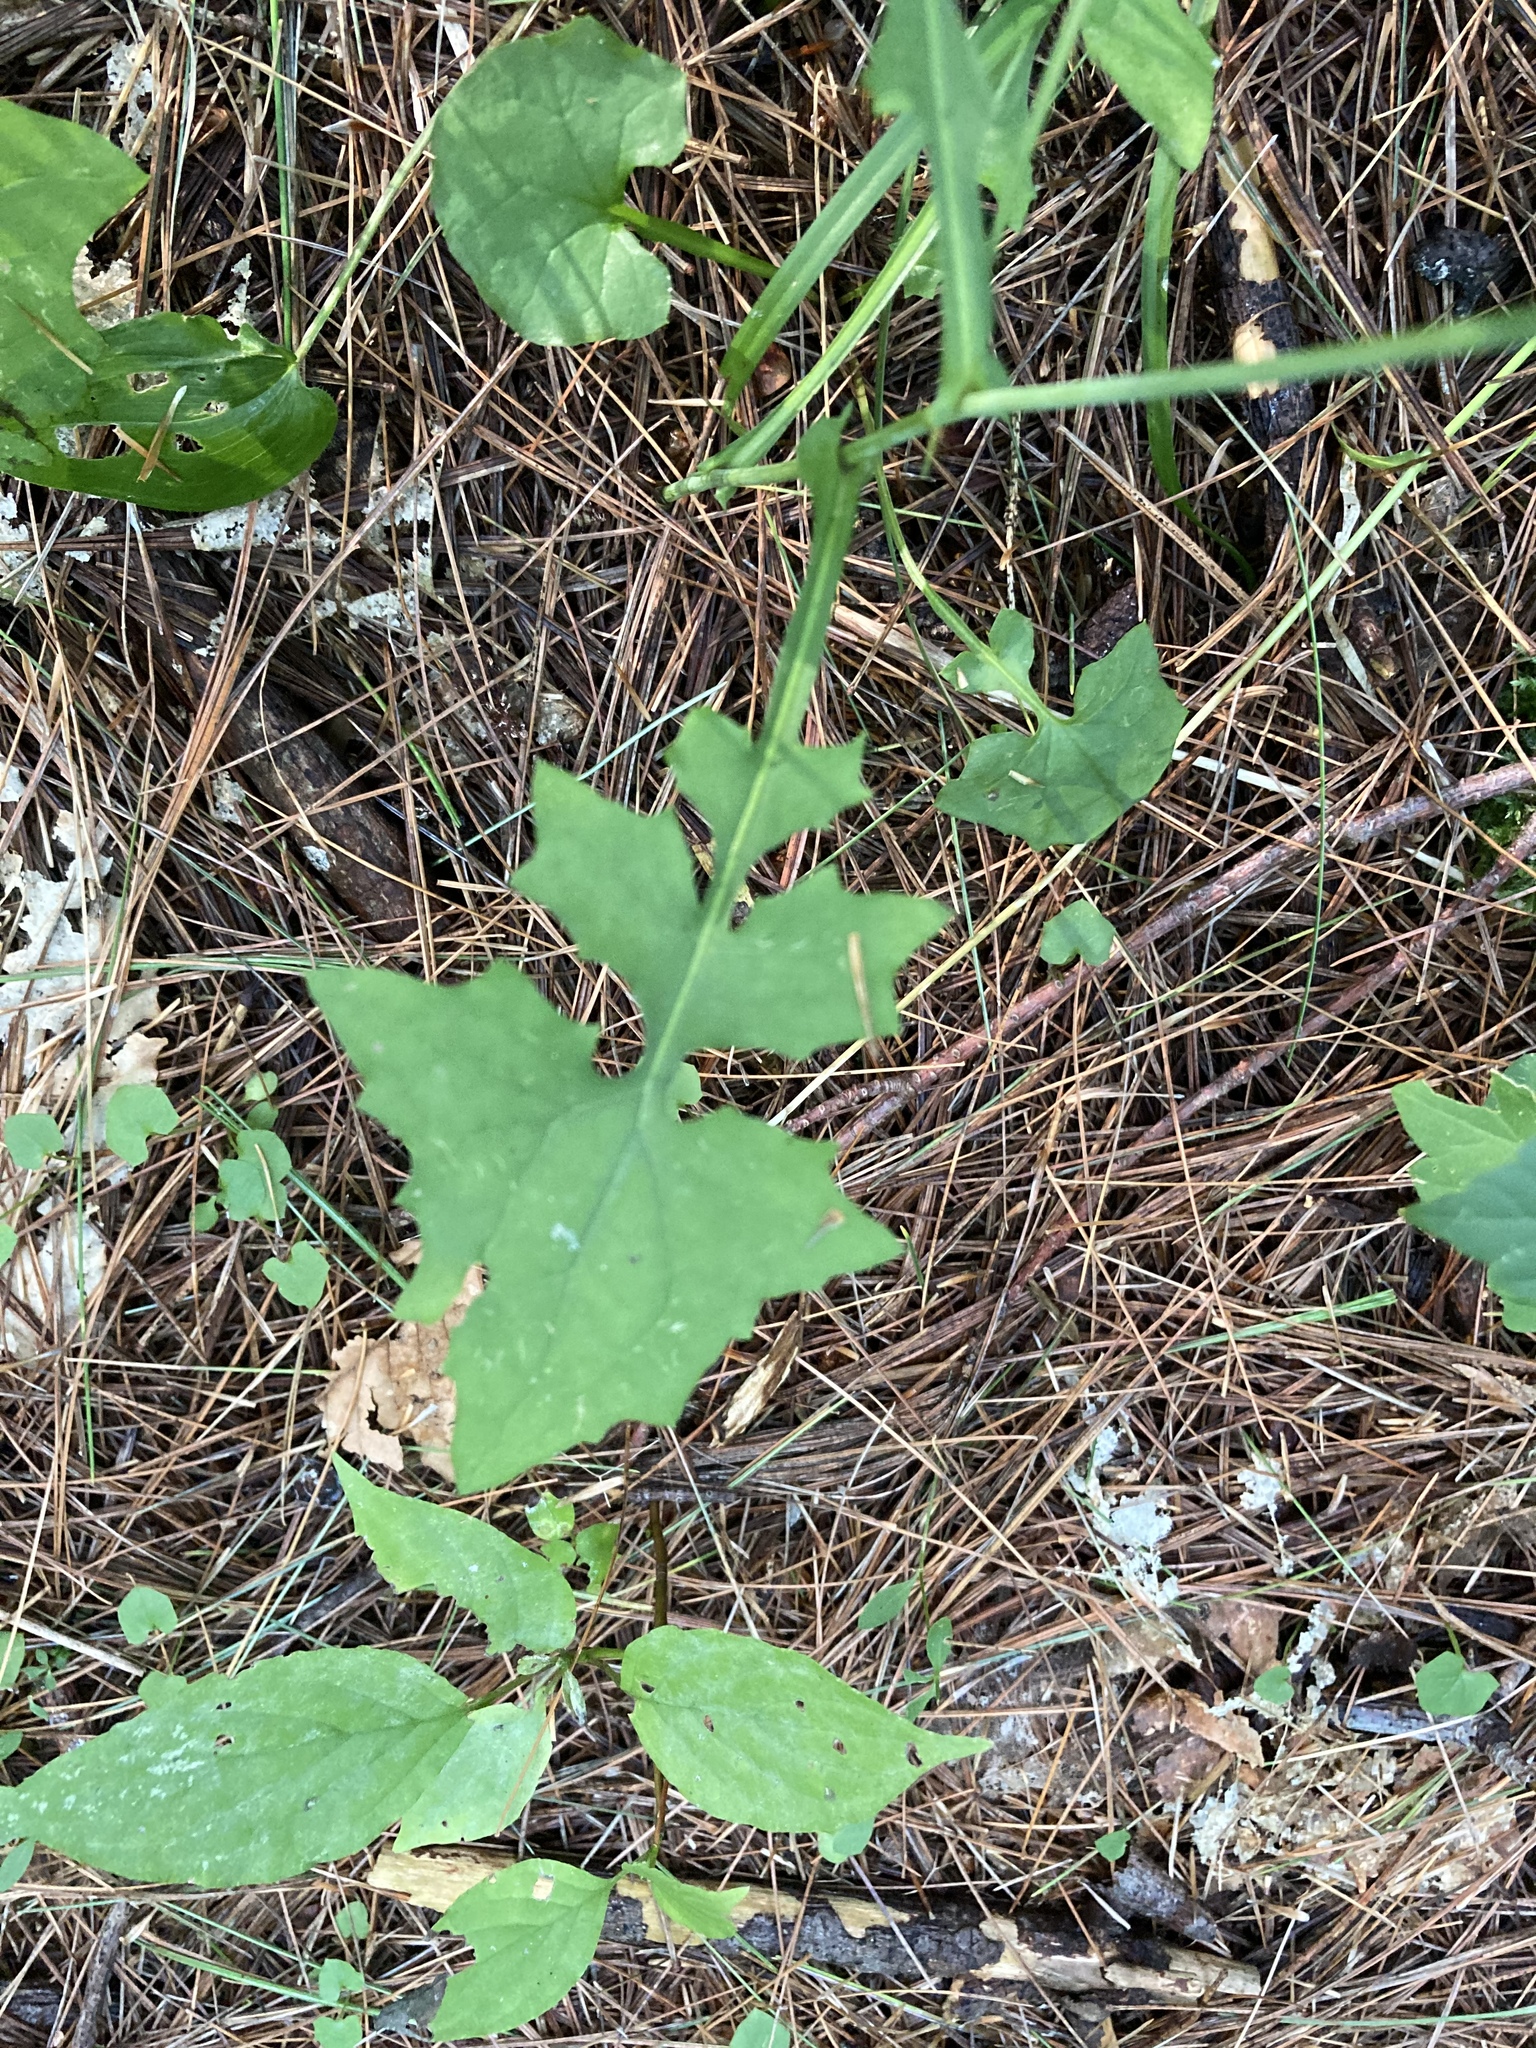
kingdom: Plantae
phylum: Tracheophyta
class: Magnoliopsida
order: Asterales
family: Asteraceae
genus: Mycelis
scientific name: Mycelis muralis
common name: Wall lettuce
